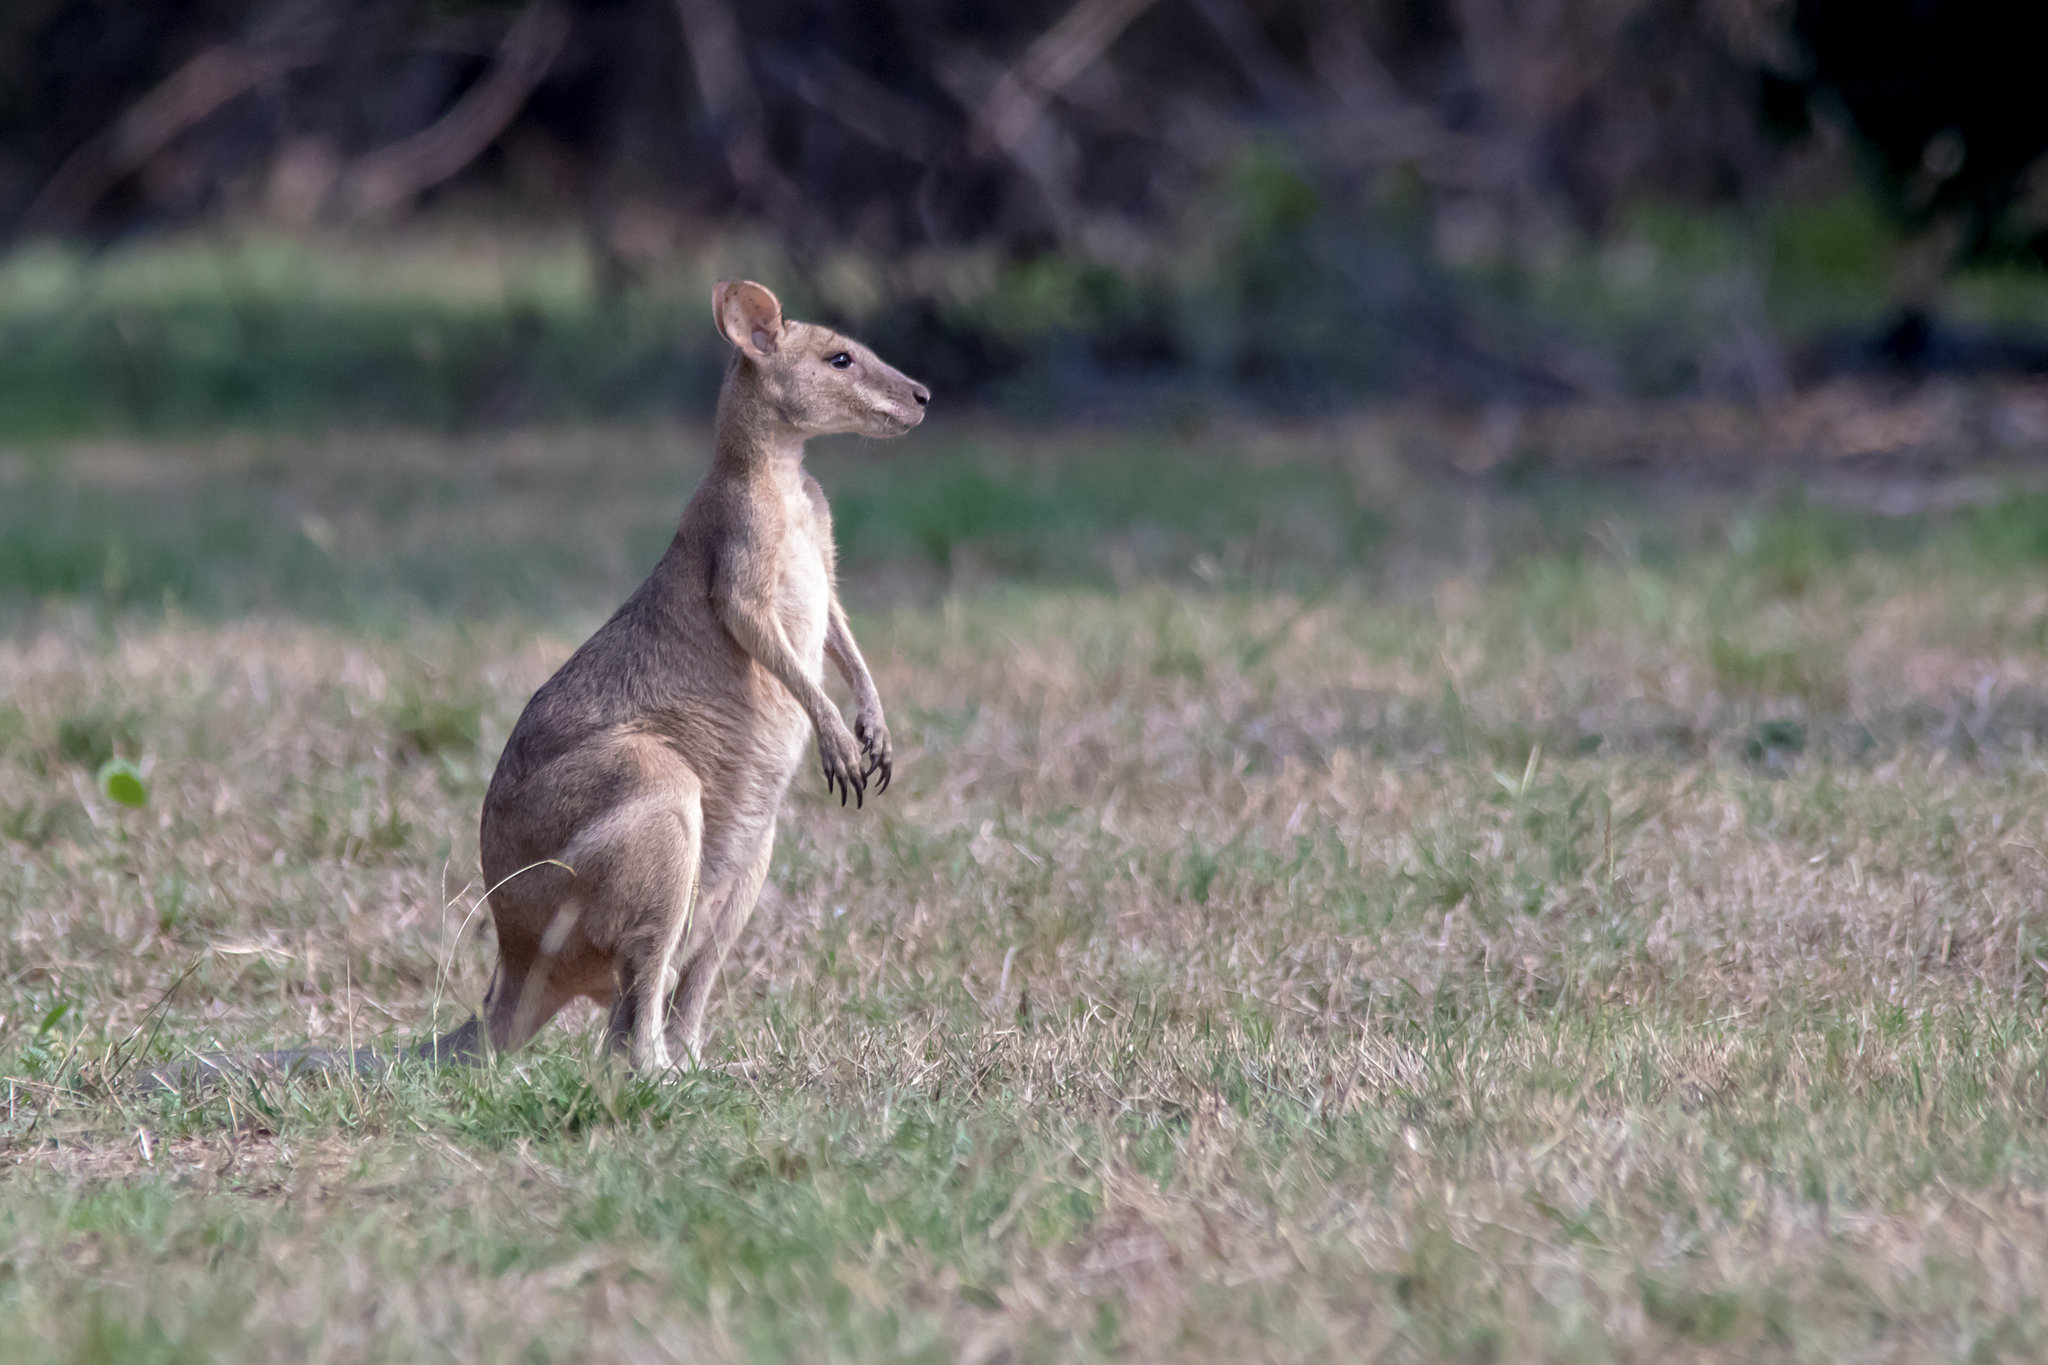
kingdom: Animalia
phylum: Chordata
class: Mammalia
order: Diprotodontia
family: Macropodidae
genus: Macropus
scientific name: Macropus agilis
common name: Agile wallaby
